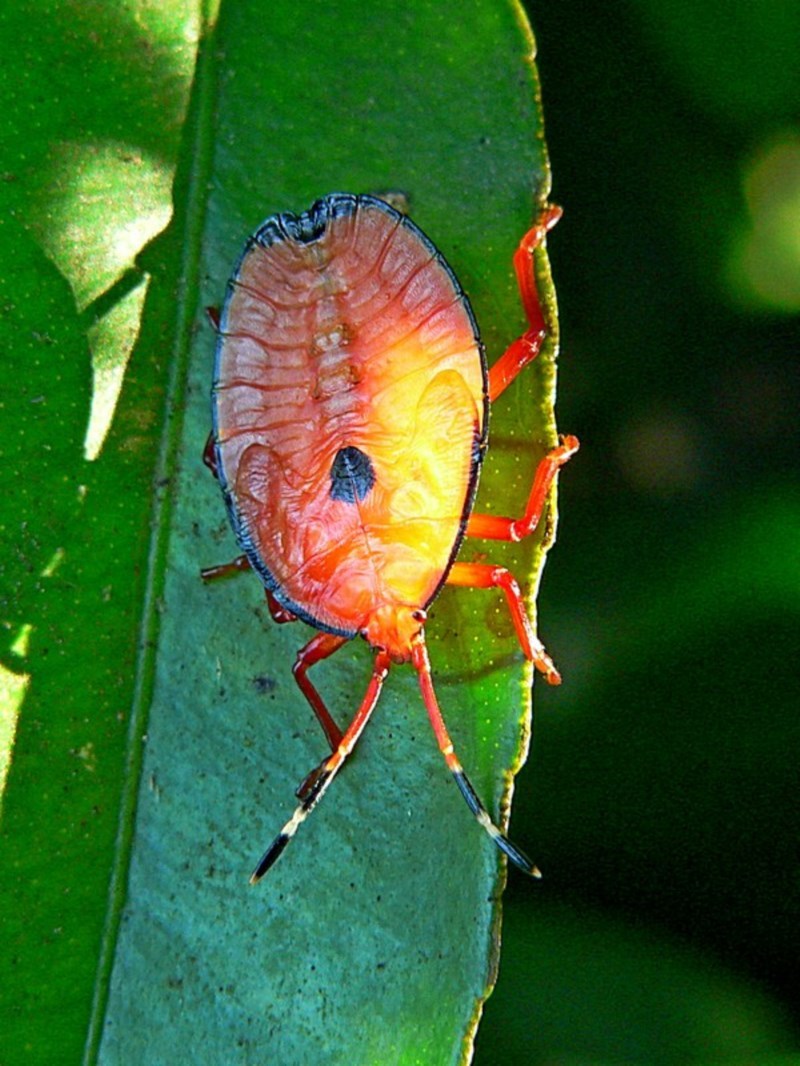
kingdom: Animalia
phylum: Arthropoda
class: Insecta
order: Hemiptera
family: Tessaratomidae
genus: Musgraveia
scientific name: Musgraveia sulciventris
